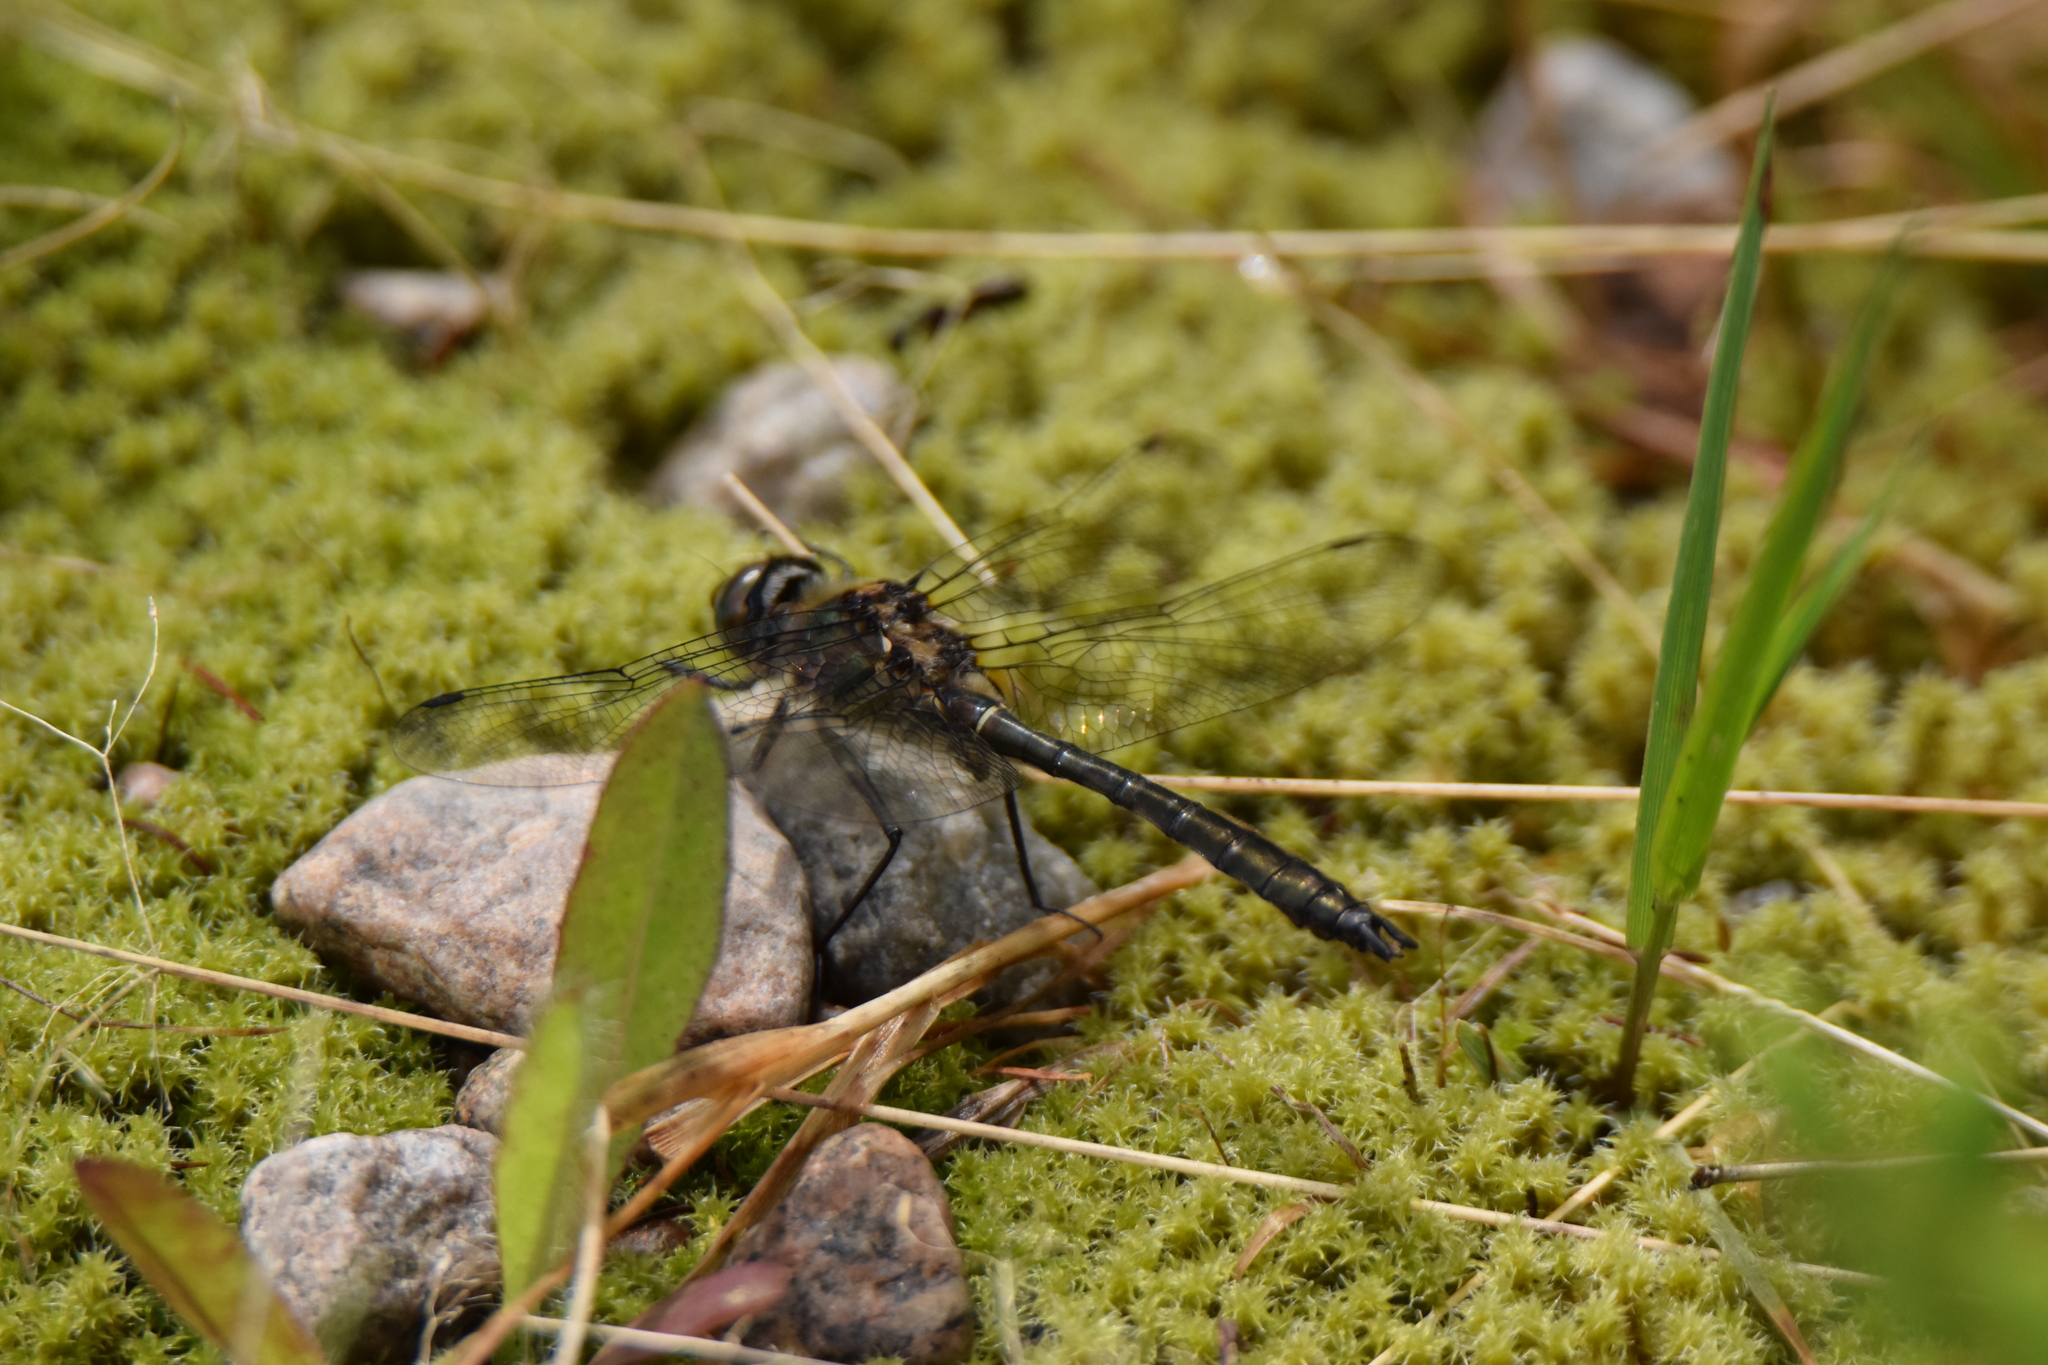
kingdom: Animalia
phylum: Arthropoda
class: Insecta
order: Odonata
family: Corduliidae
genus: Cordulia
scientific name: Cordulia shurtleffii
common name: American emerald
